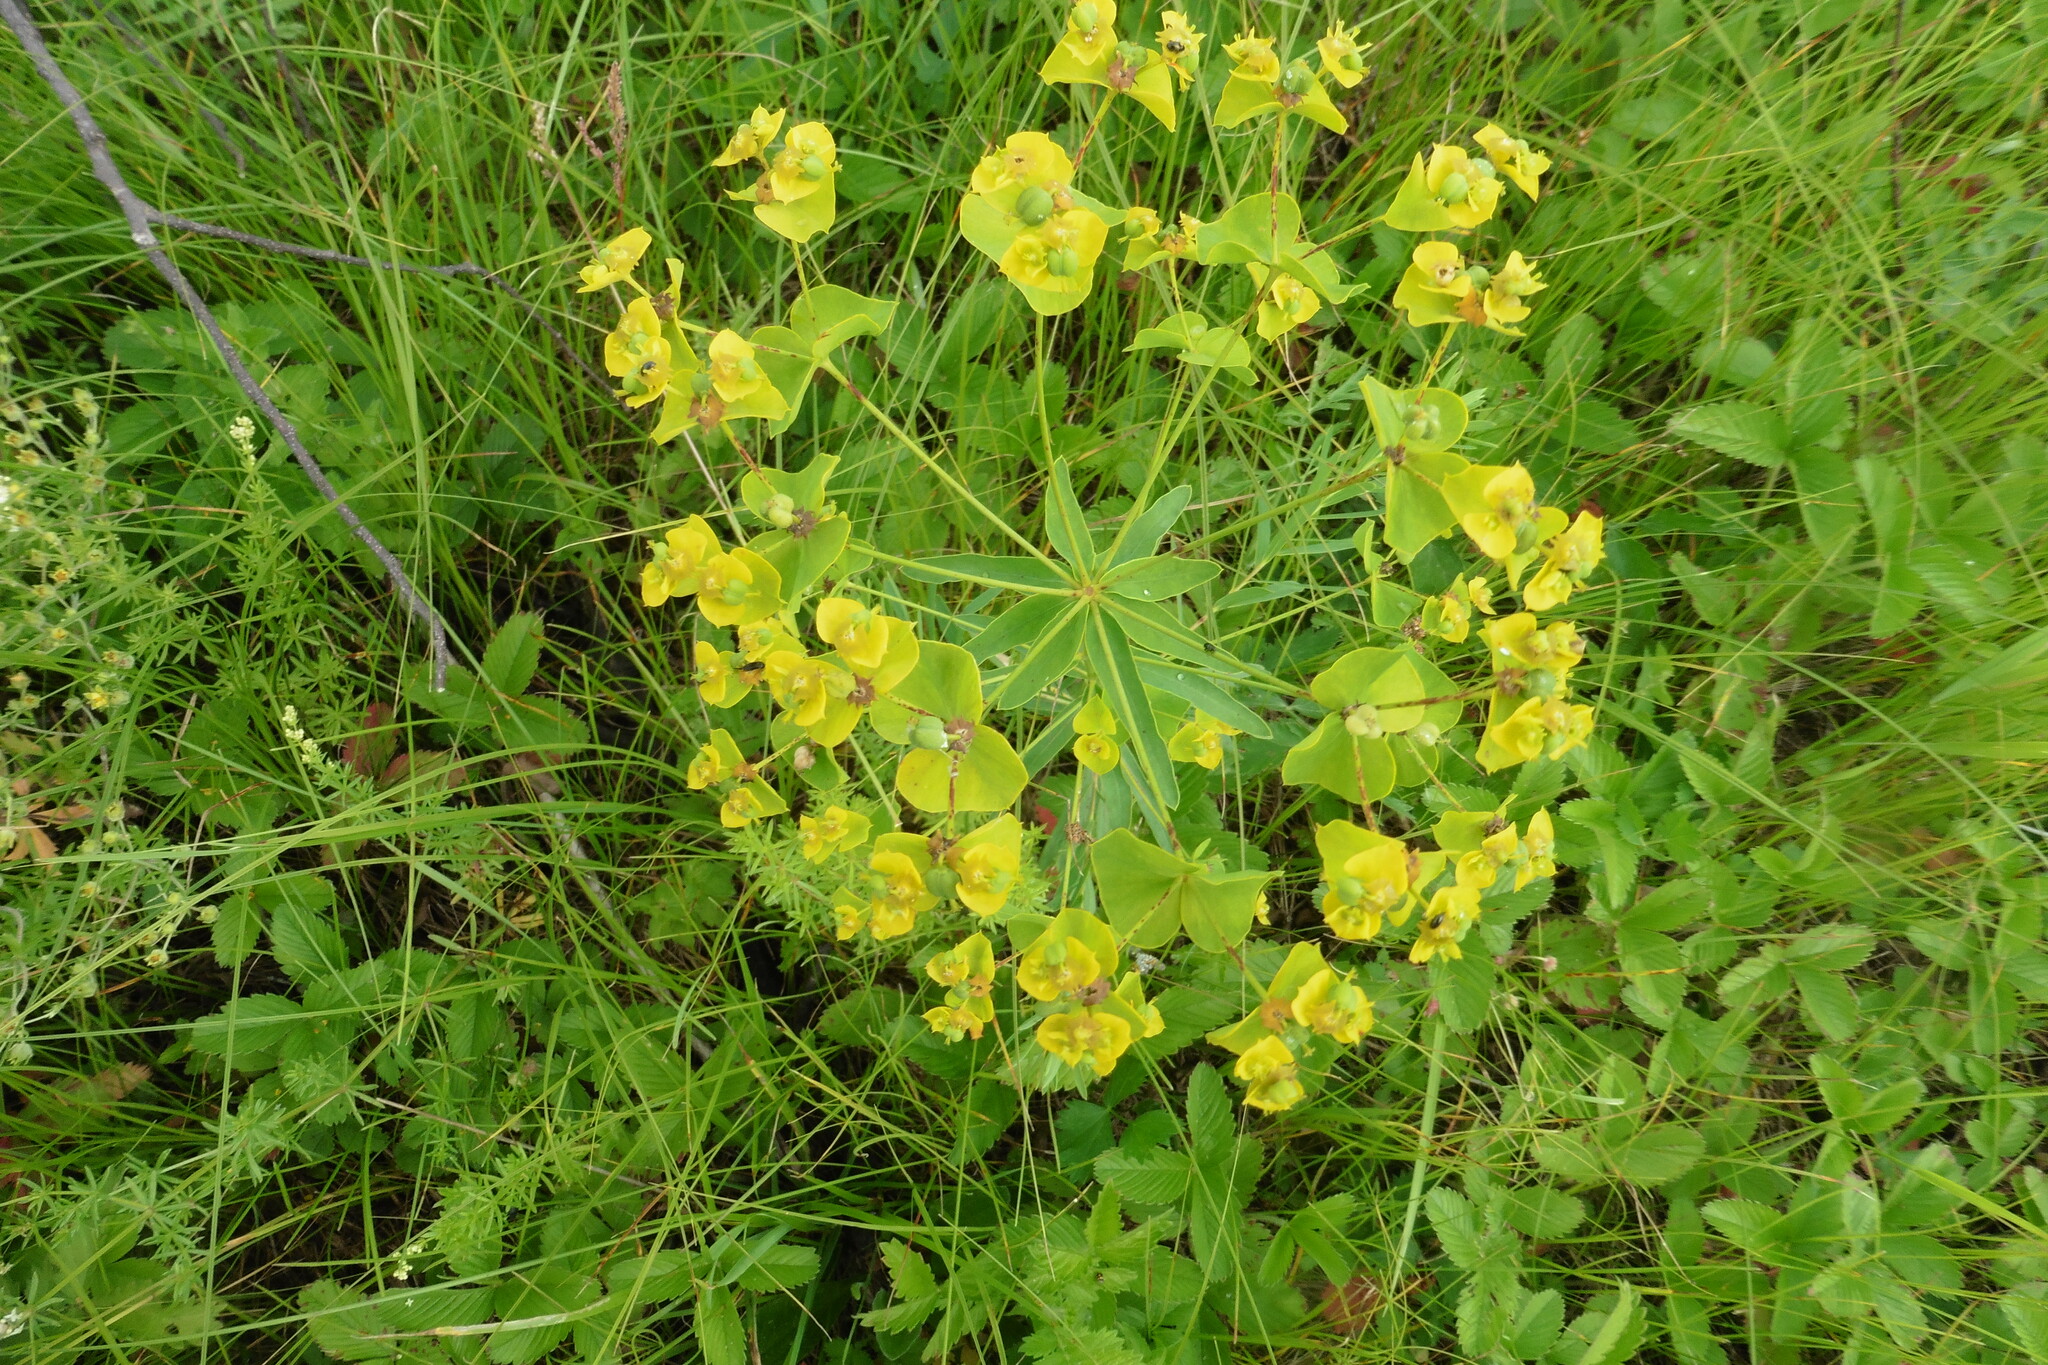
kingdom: Plantae
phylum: Tracheophyta
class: Magnoliopsida
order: Malpighiales
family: Euphorbiaceae
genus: Euphorbia
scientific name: Euphorbia virgata
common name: Leafy spurge
